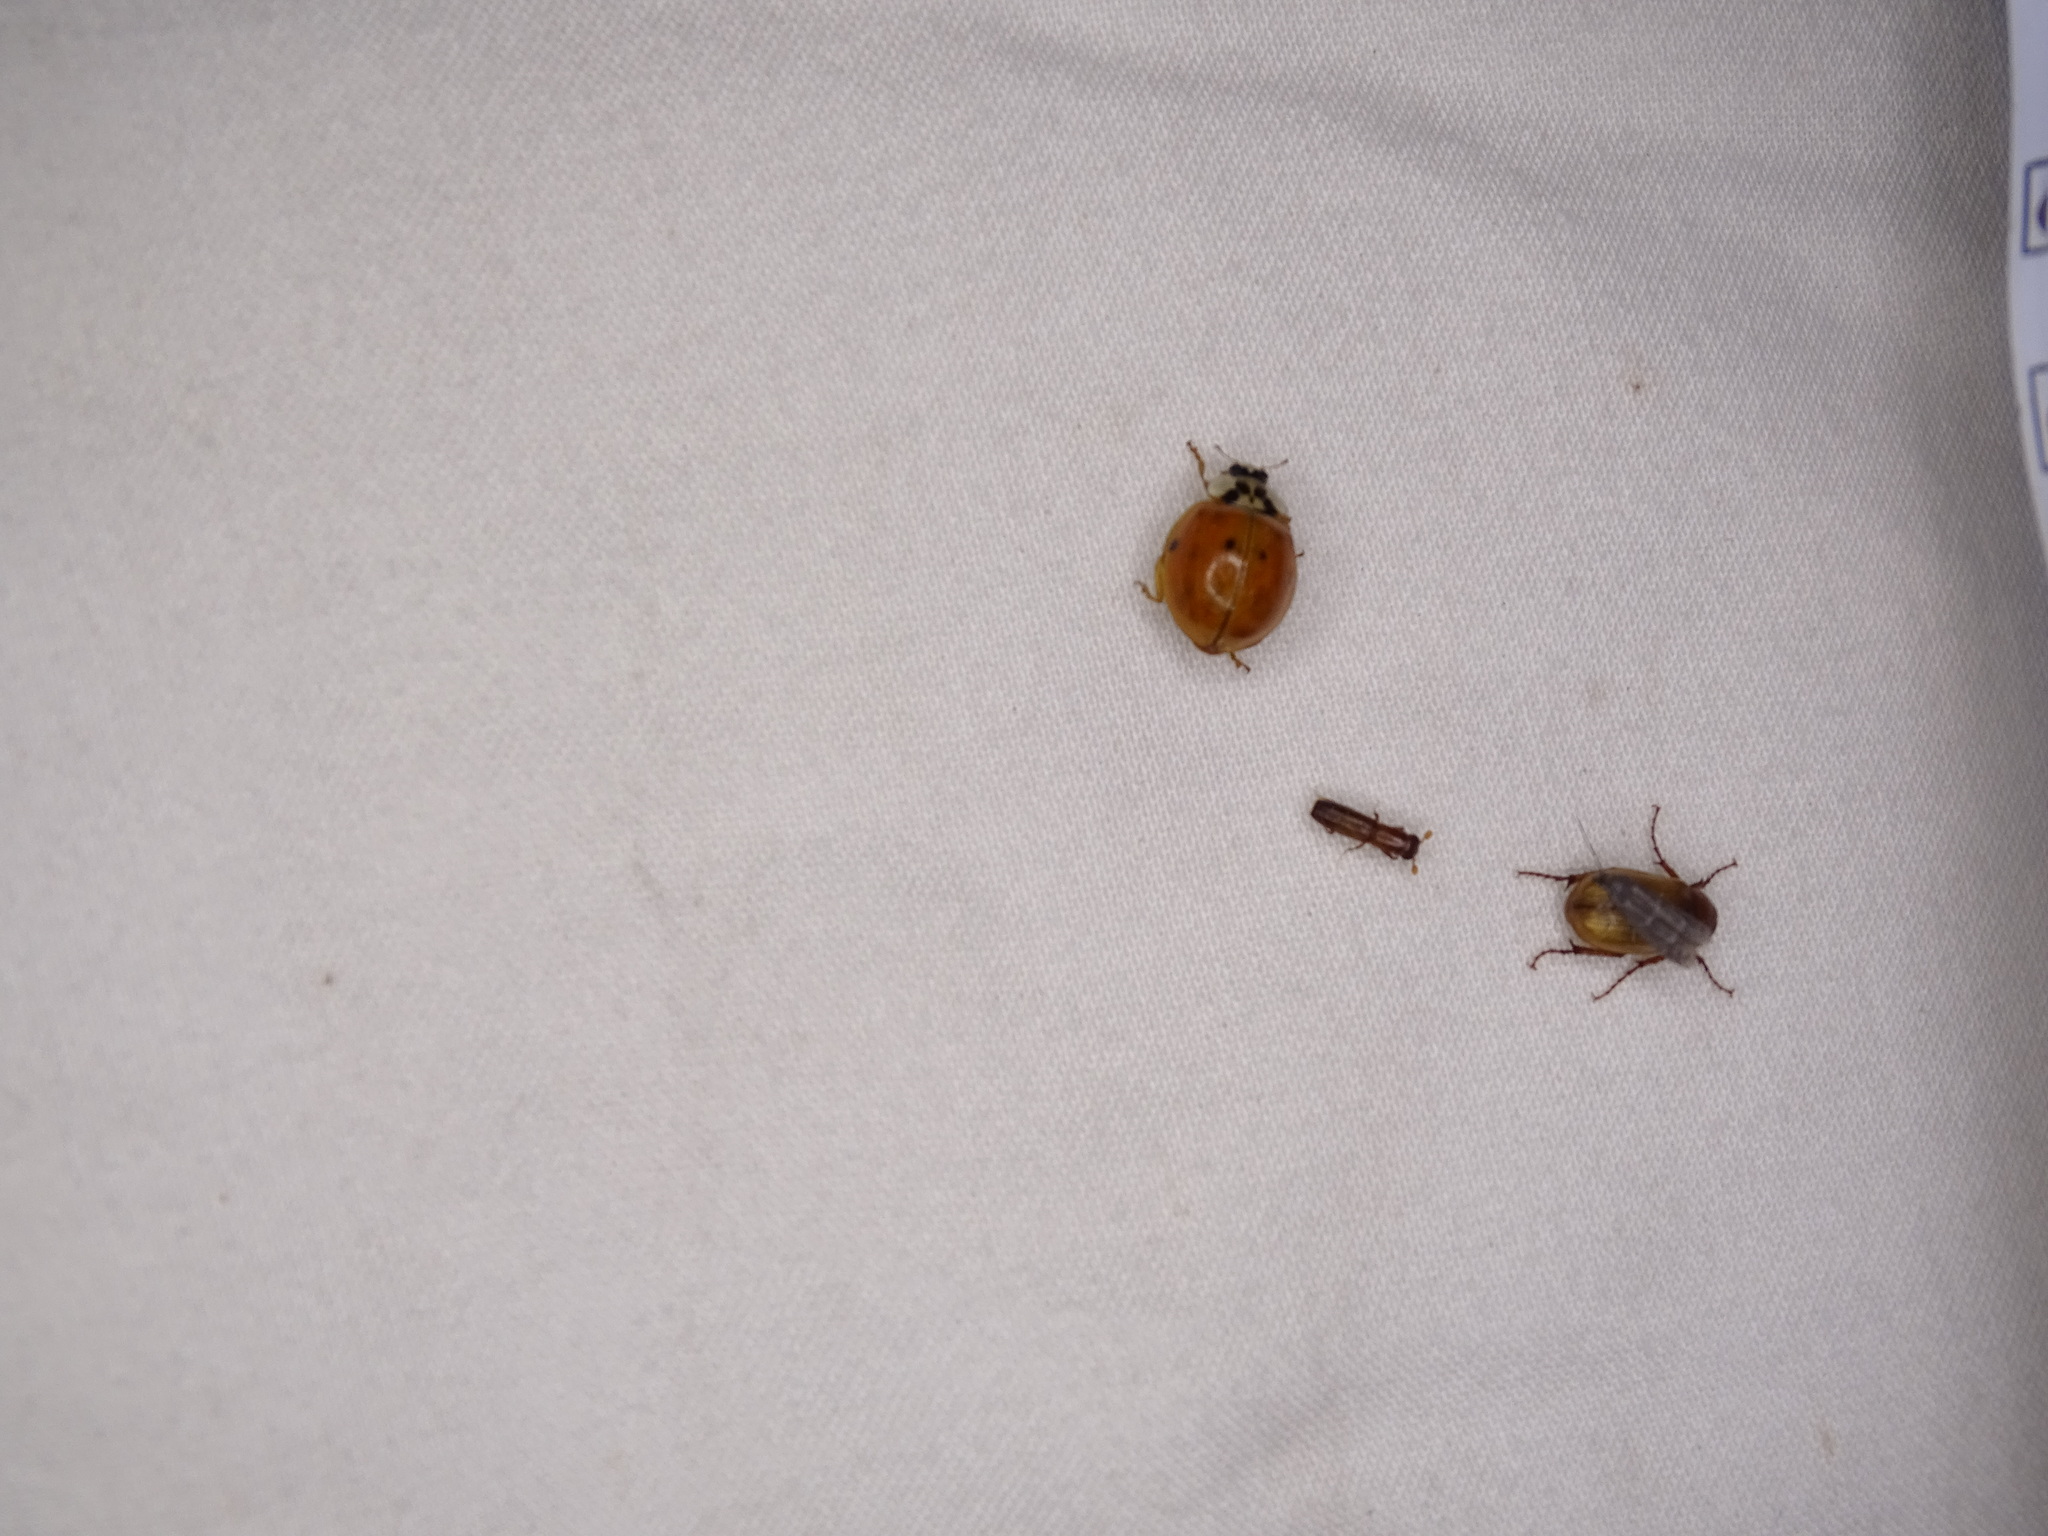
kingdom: Animalia
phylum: Arthropoda
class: Insecta
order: Coleoptera
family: Coccinellidae
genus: Harmonia
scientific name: Harmonia axyridis
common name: Harlequin ladybird
